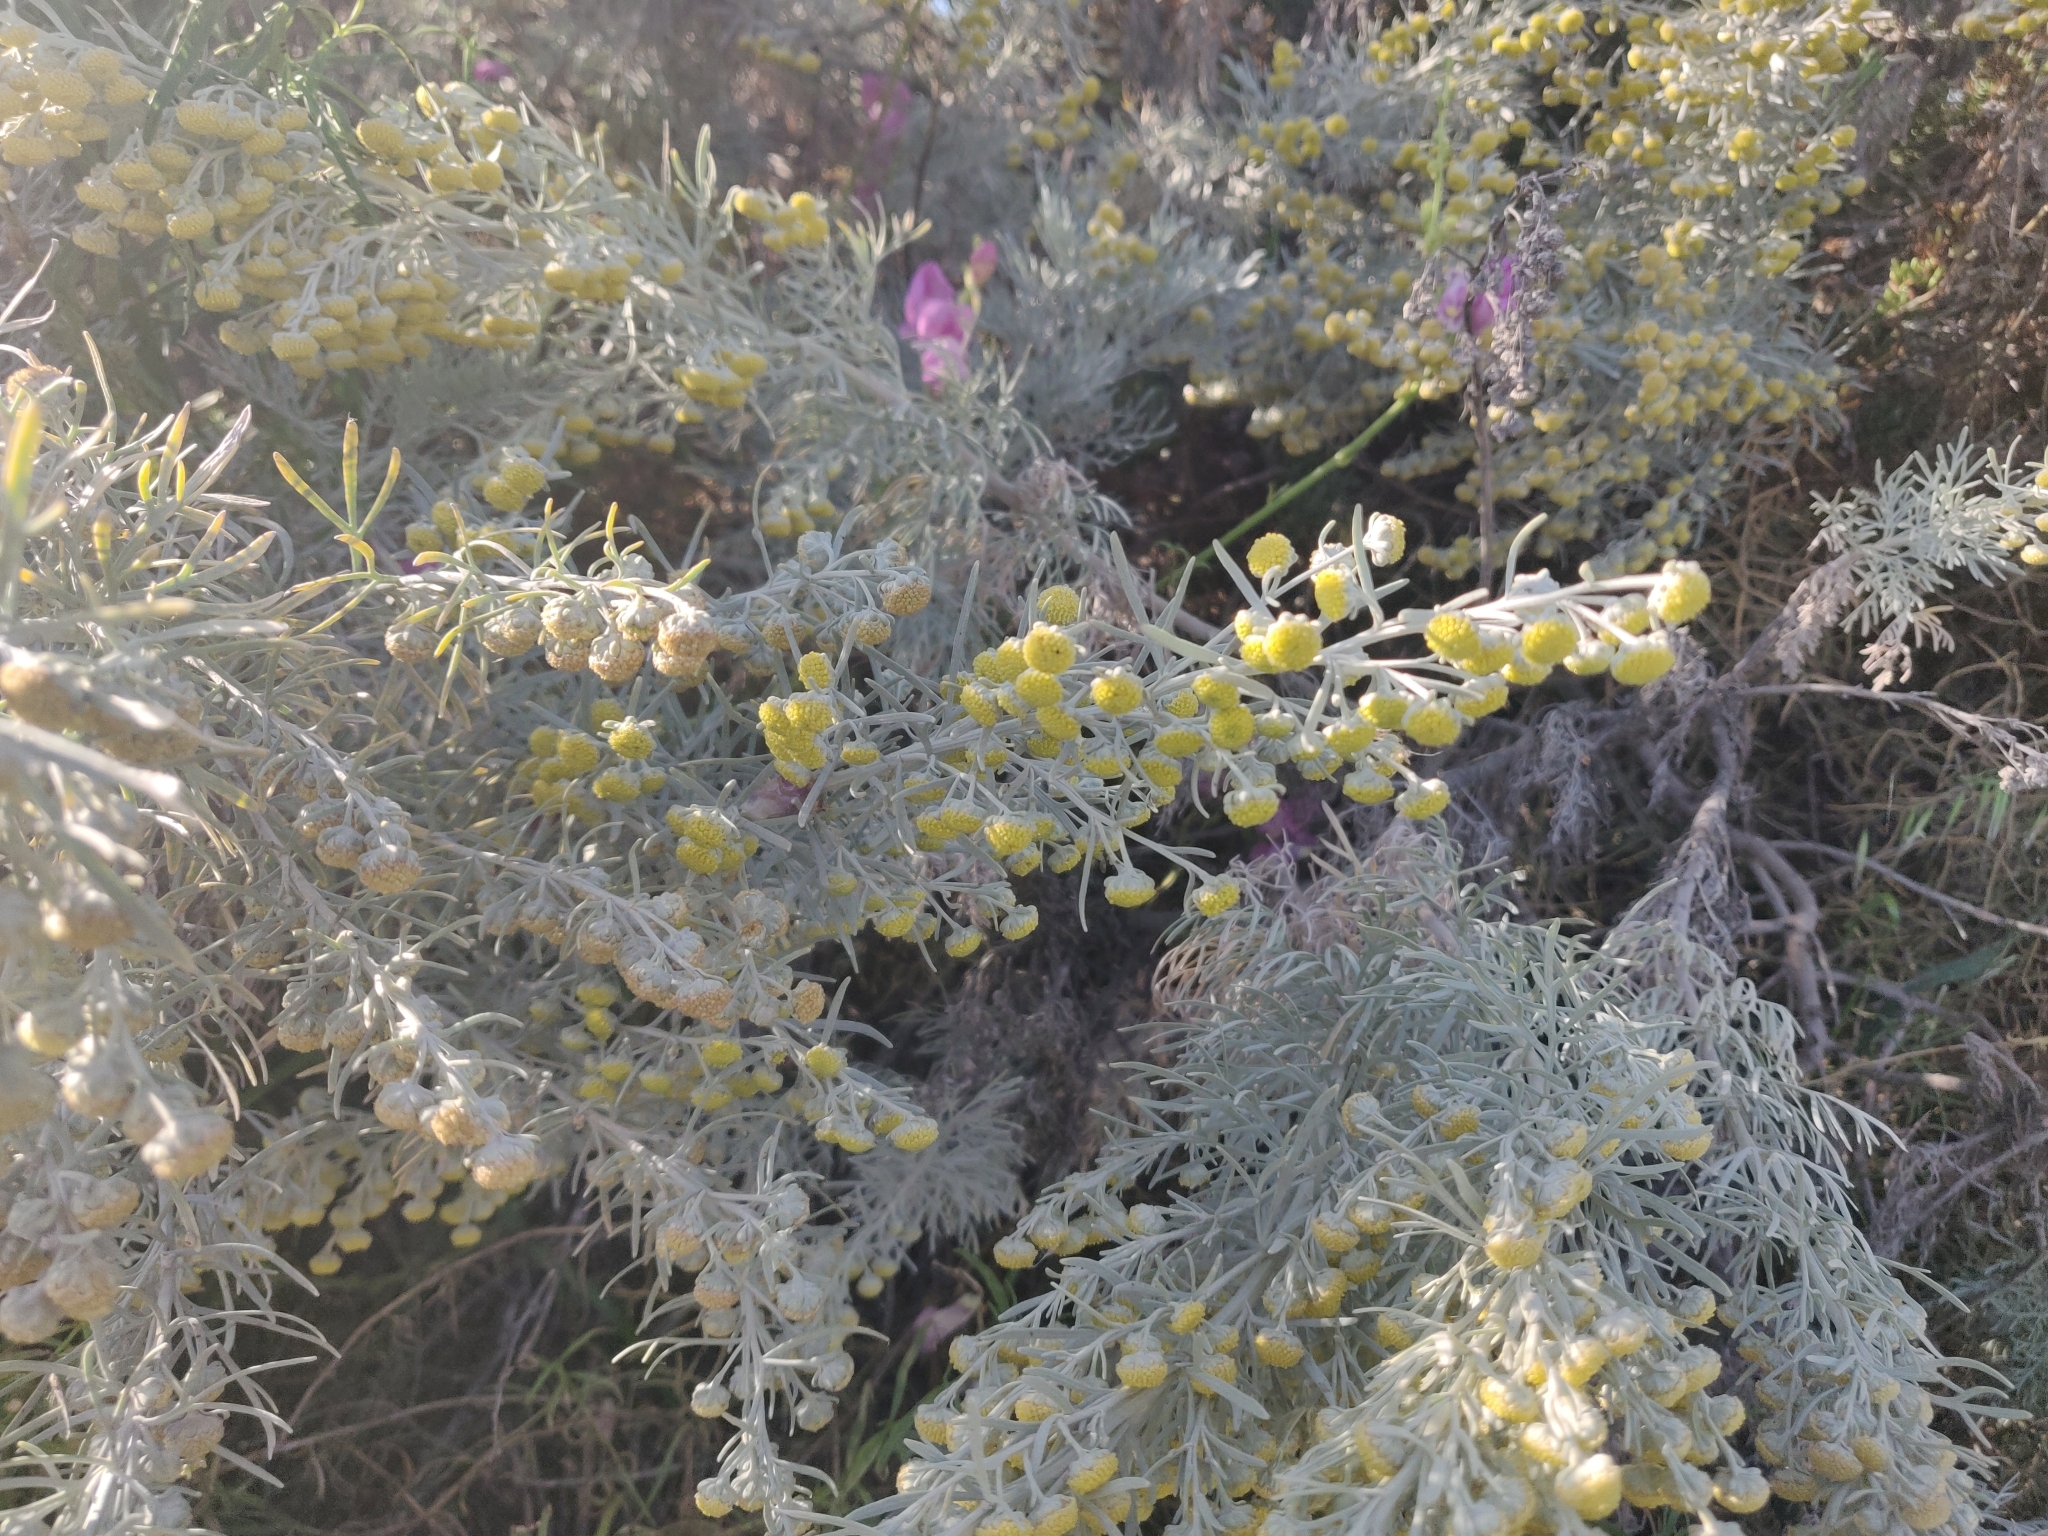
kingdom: Plantae
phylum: Tracheophyta
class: Magnoliopsida
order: Asterales
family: Asteraceae
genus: Artemisia
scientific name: Artemisia arborescens
